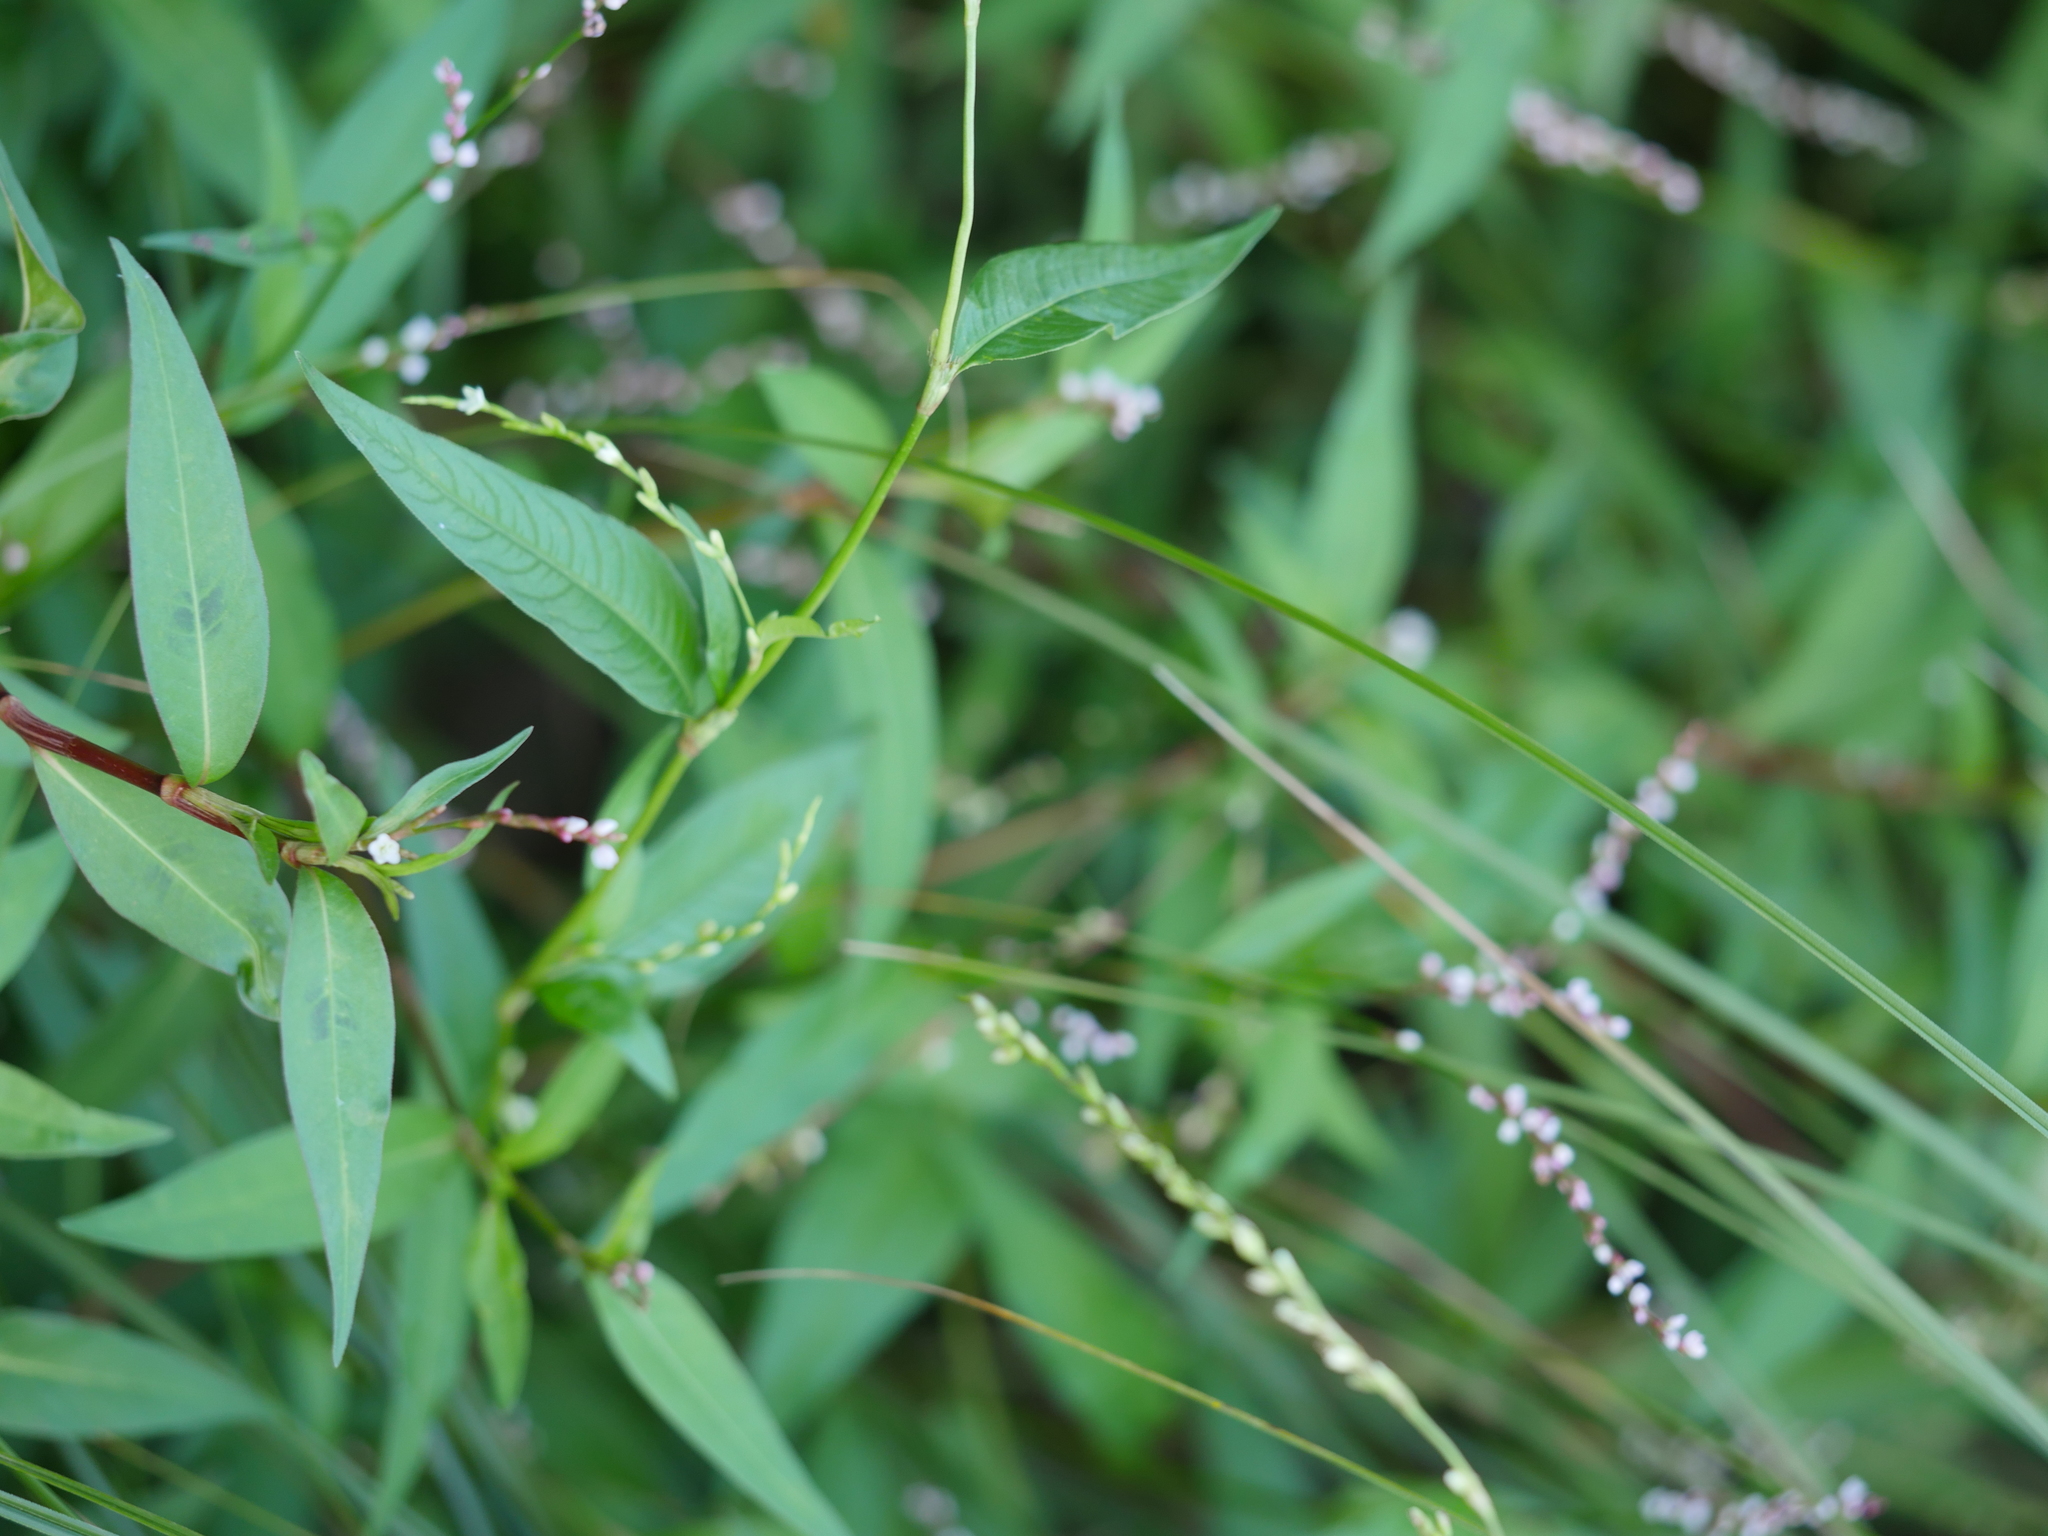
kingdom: Plantae
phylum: Tracheophyta
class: Magnoliopsida
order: Caryophyllales
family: Polygonaceae
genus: Persicaria
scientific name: Persicaria decipiens
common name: Willow-weed
